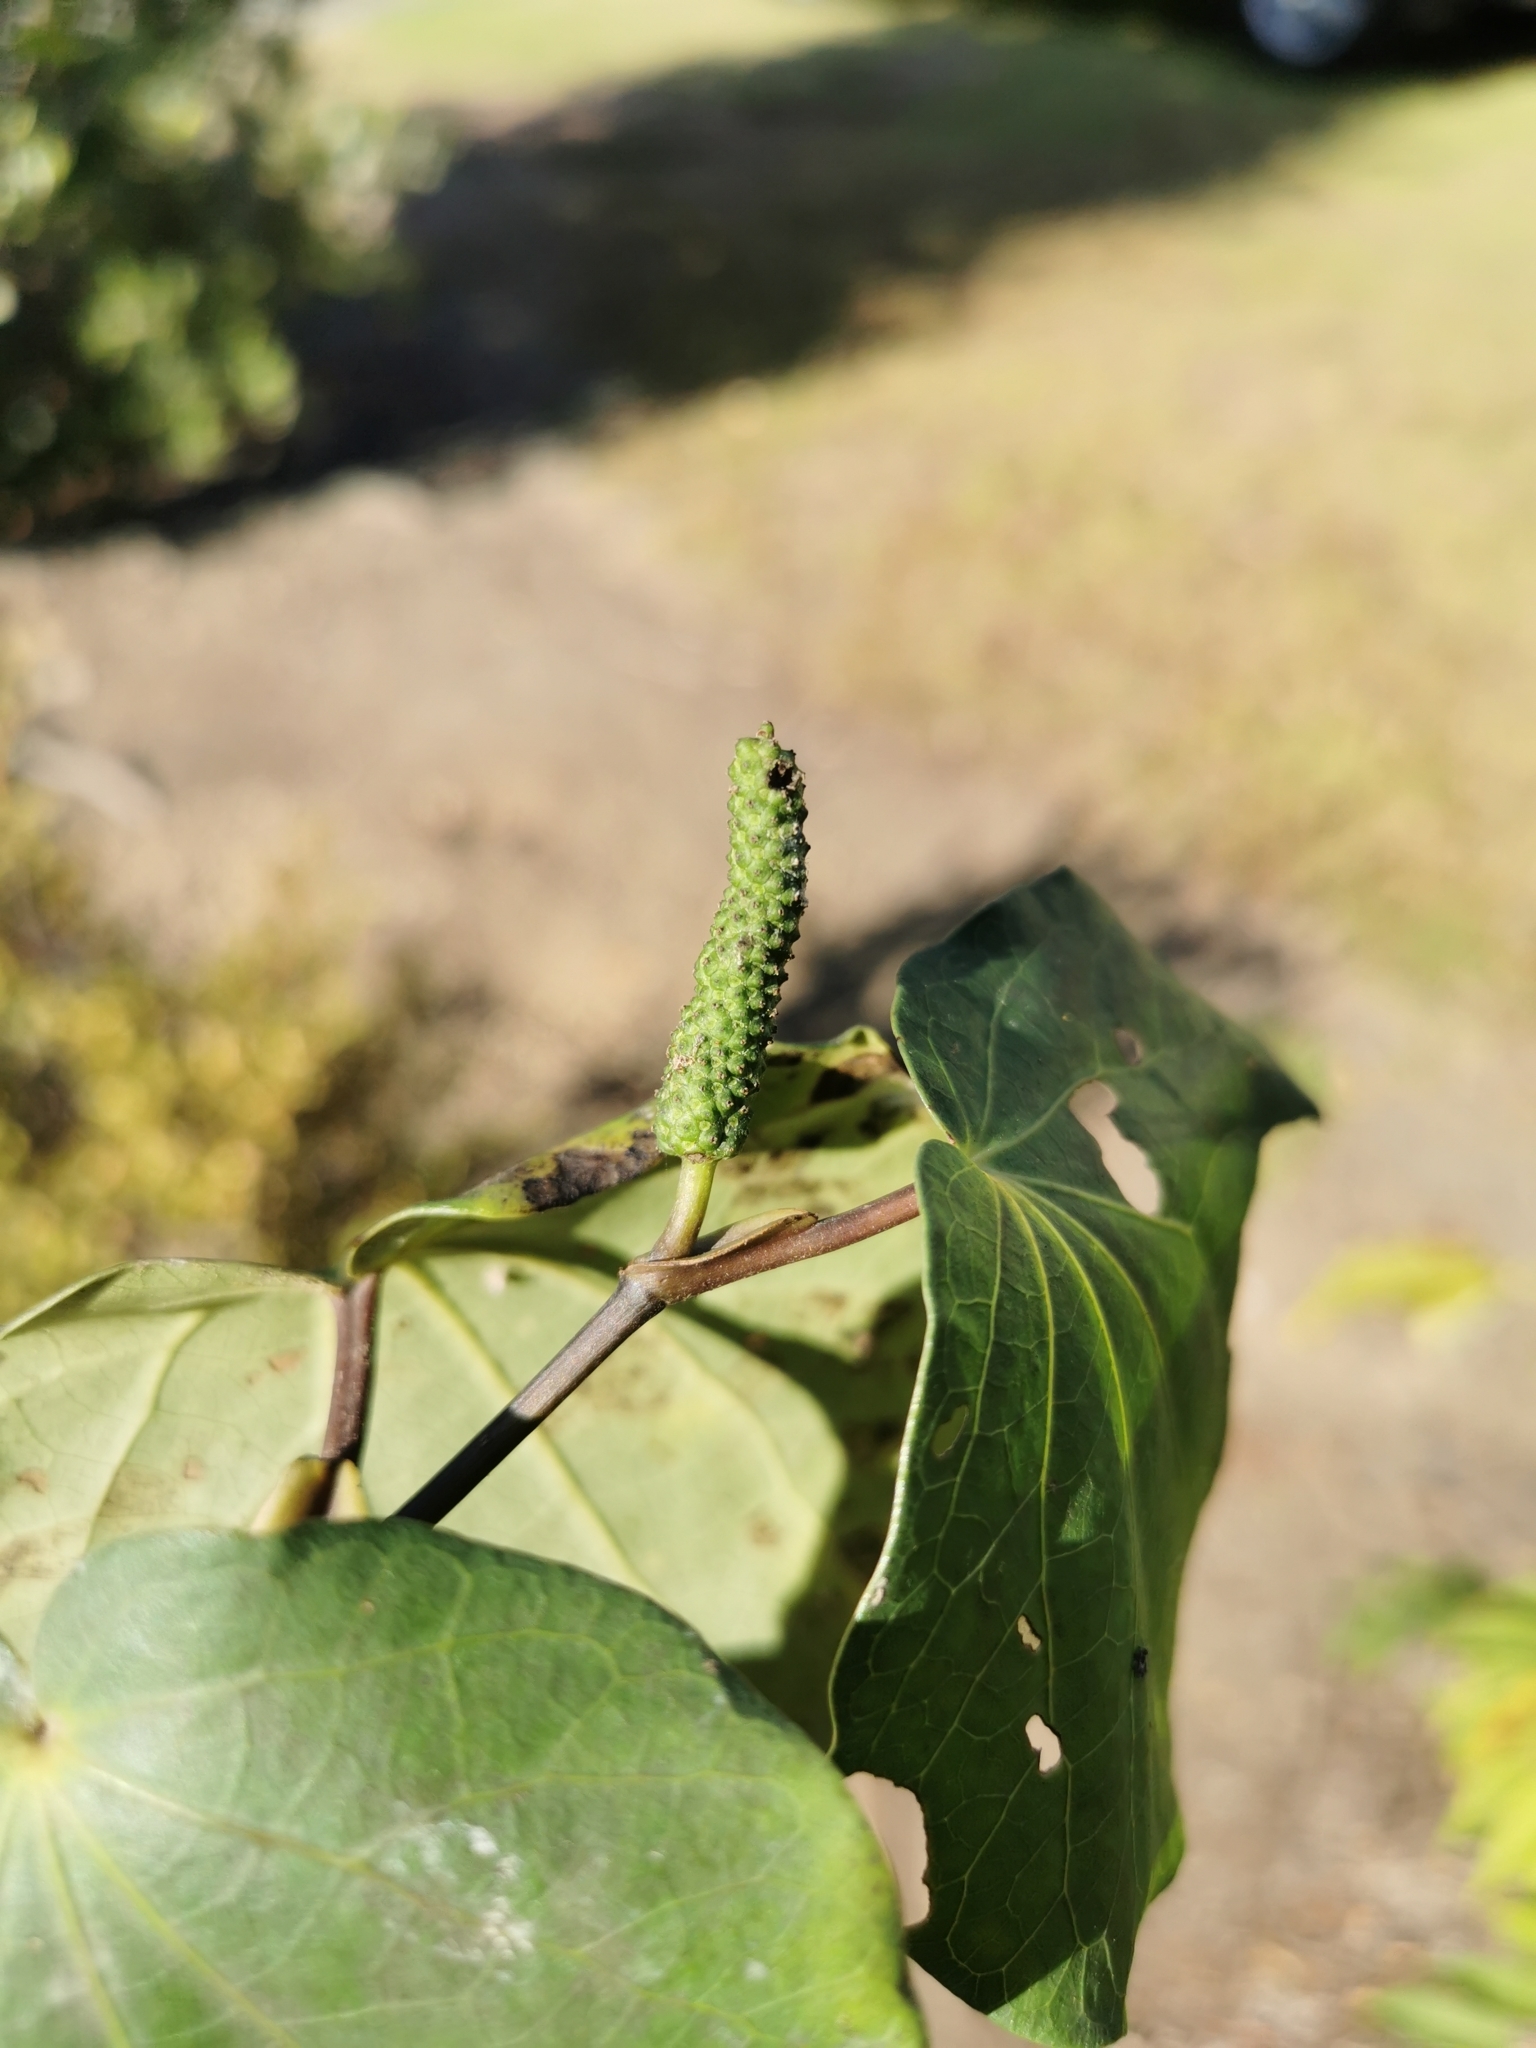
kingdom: Plantae
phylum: Tracheophyta
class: Magnoliopsida
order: Piperales
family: Piperaceae
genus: Macropiper
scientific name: Macropiper excelsum
